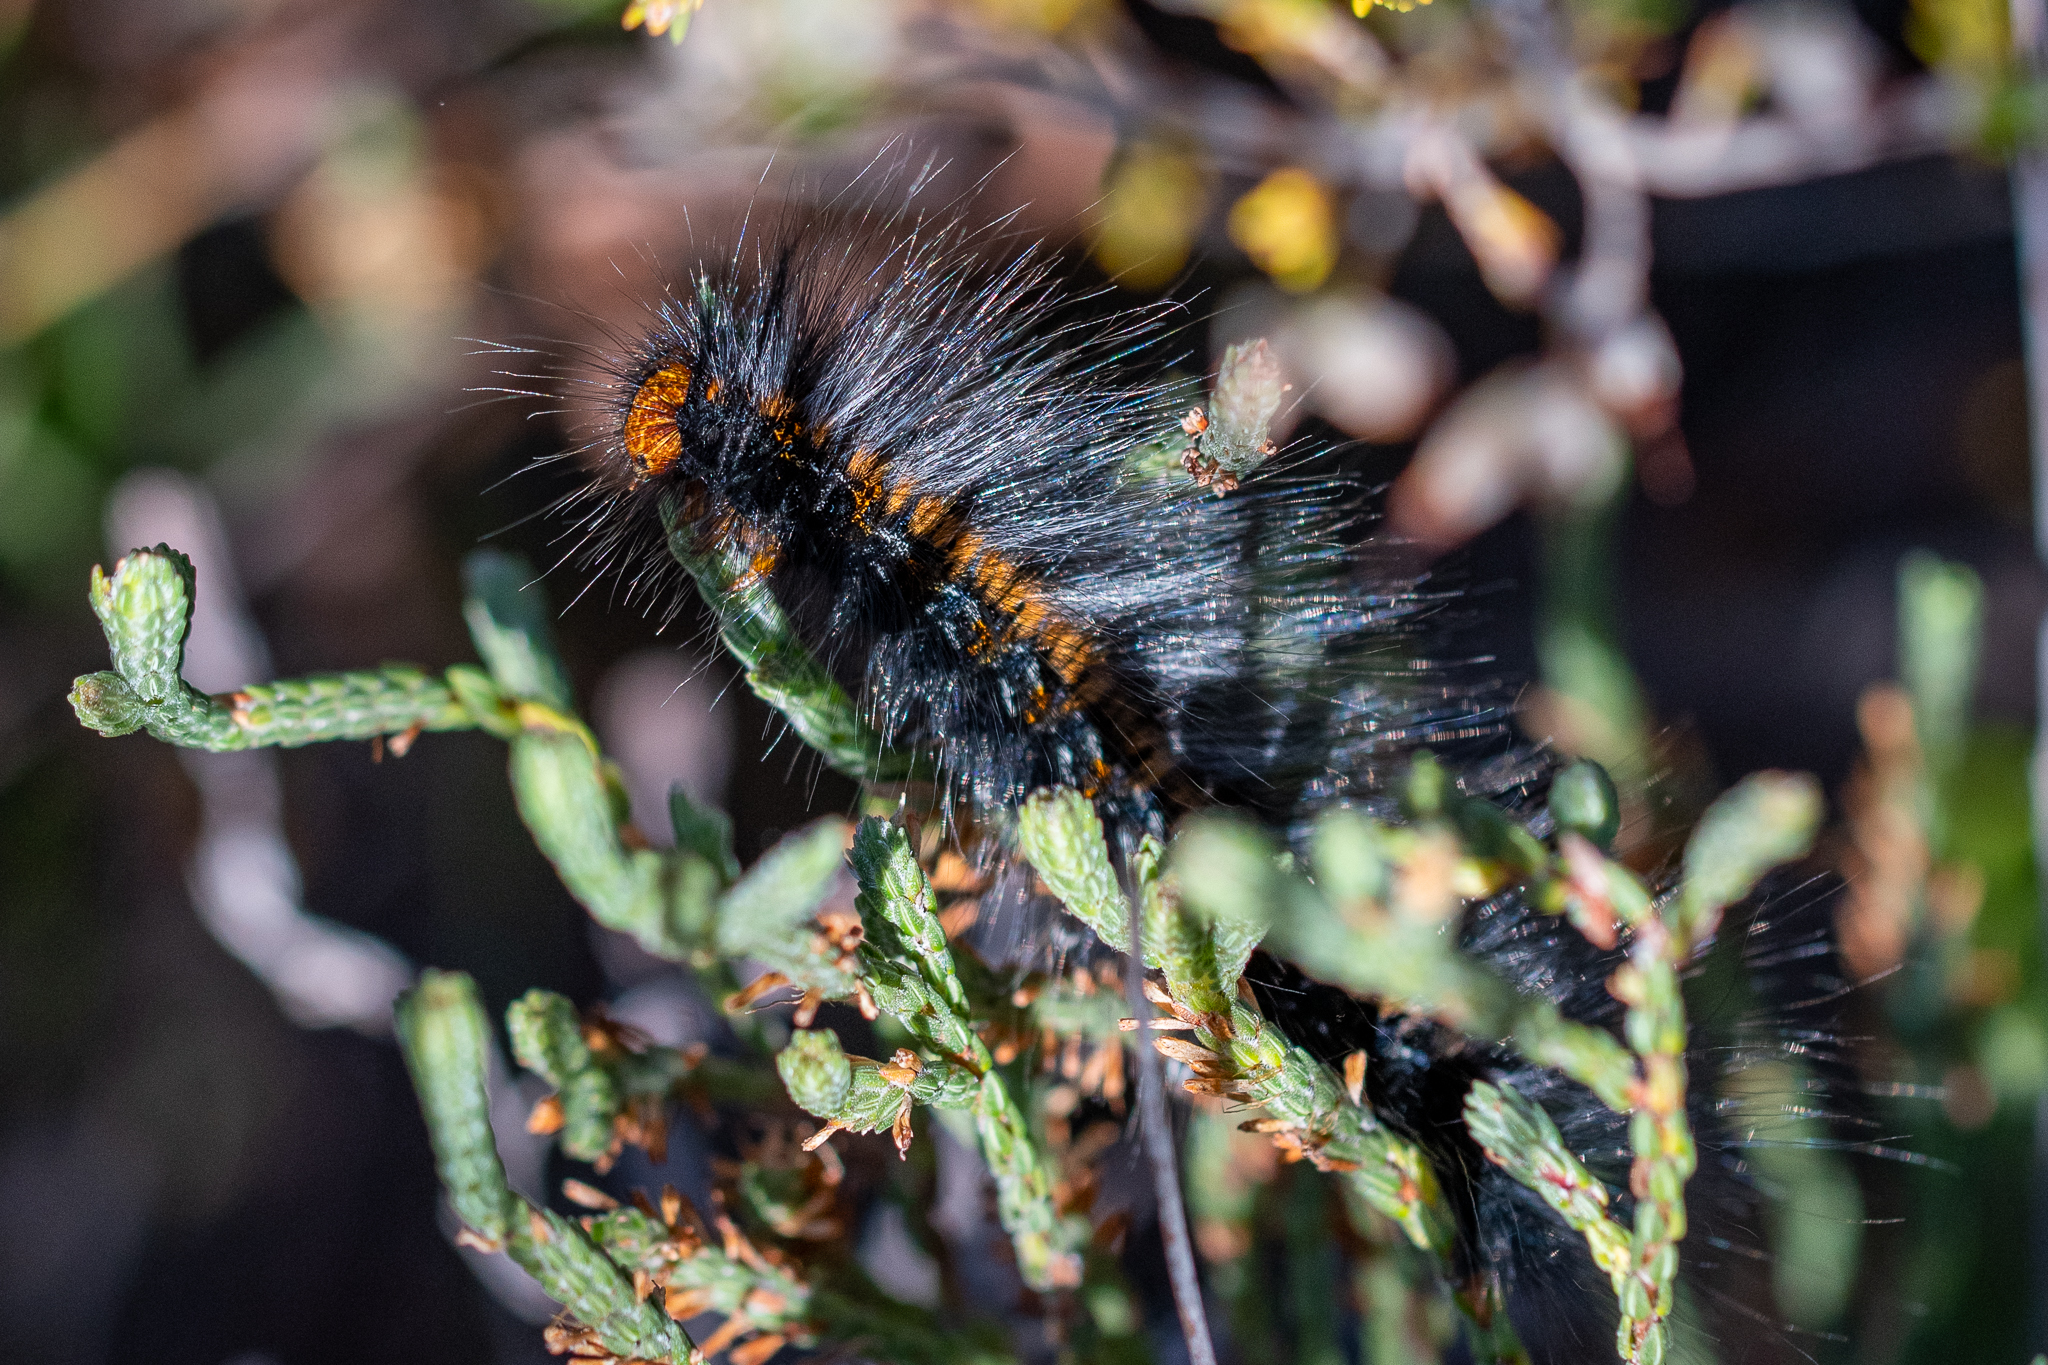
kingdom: Animalia
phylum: Arthropoda
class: Insecta
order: Lepidoptera
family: Lasiocampidae
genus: Mesocelis
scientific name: Mesocelis monticola
